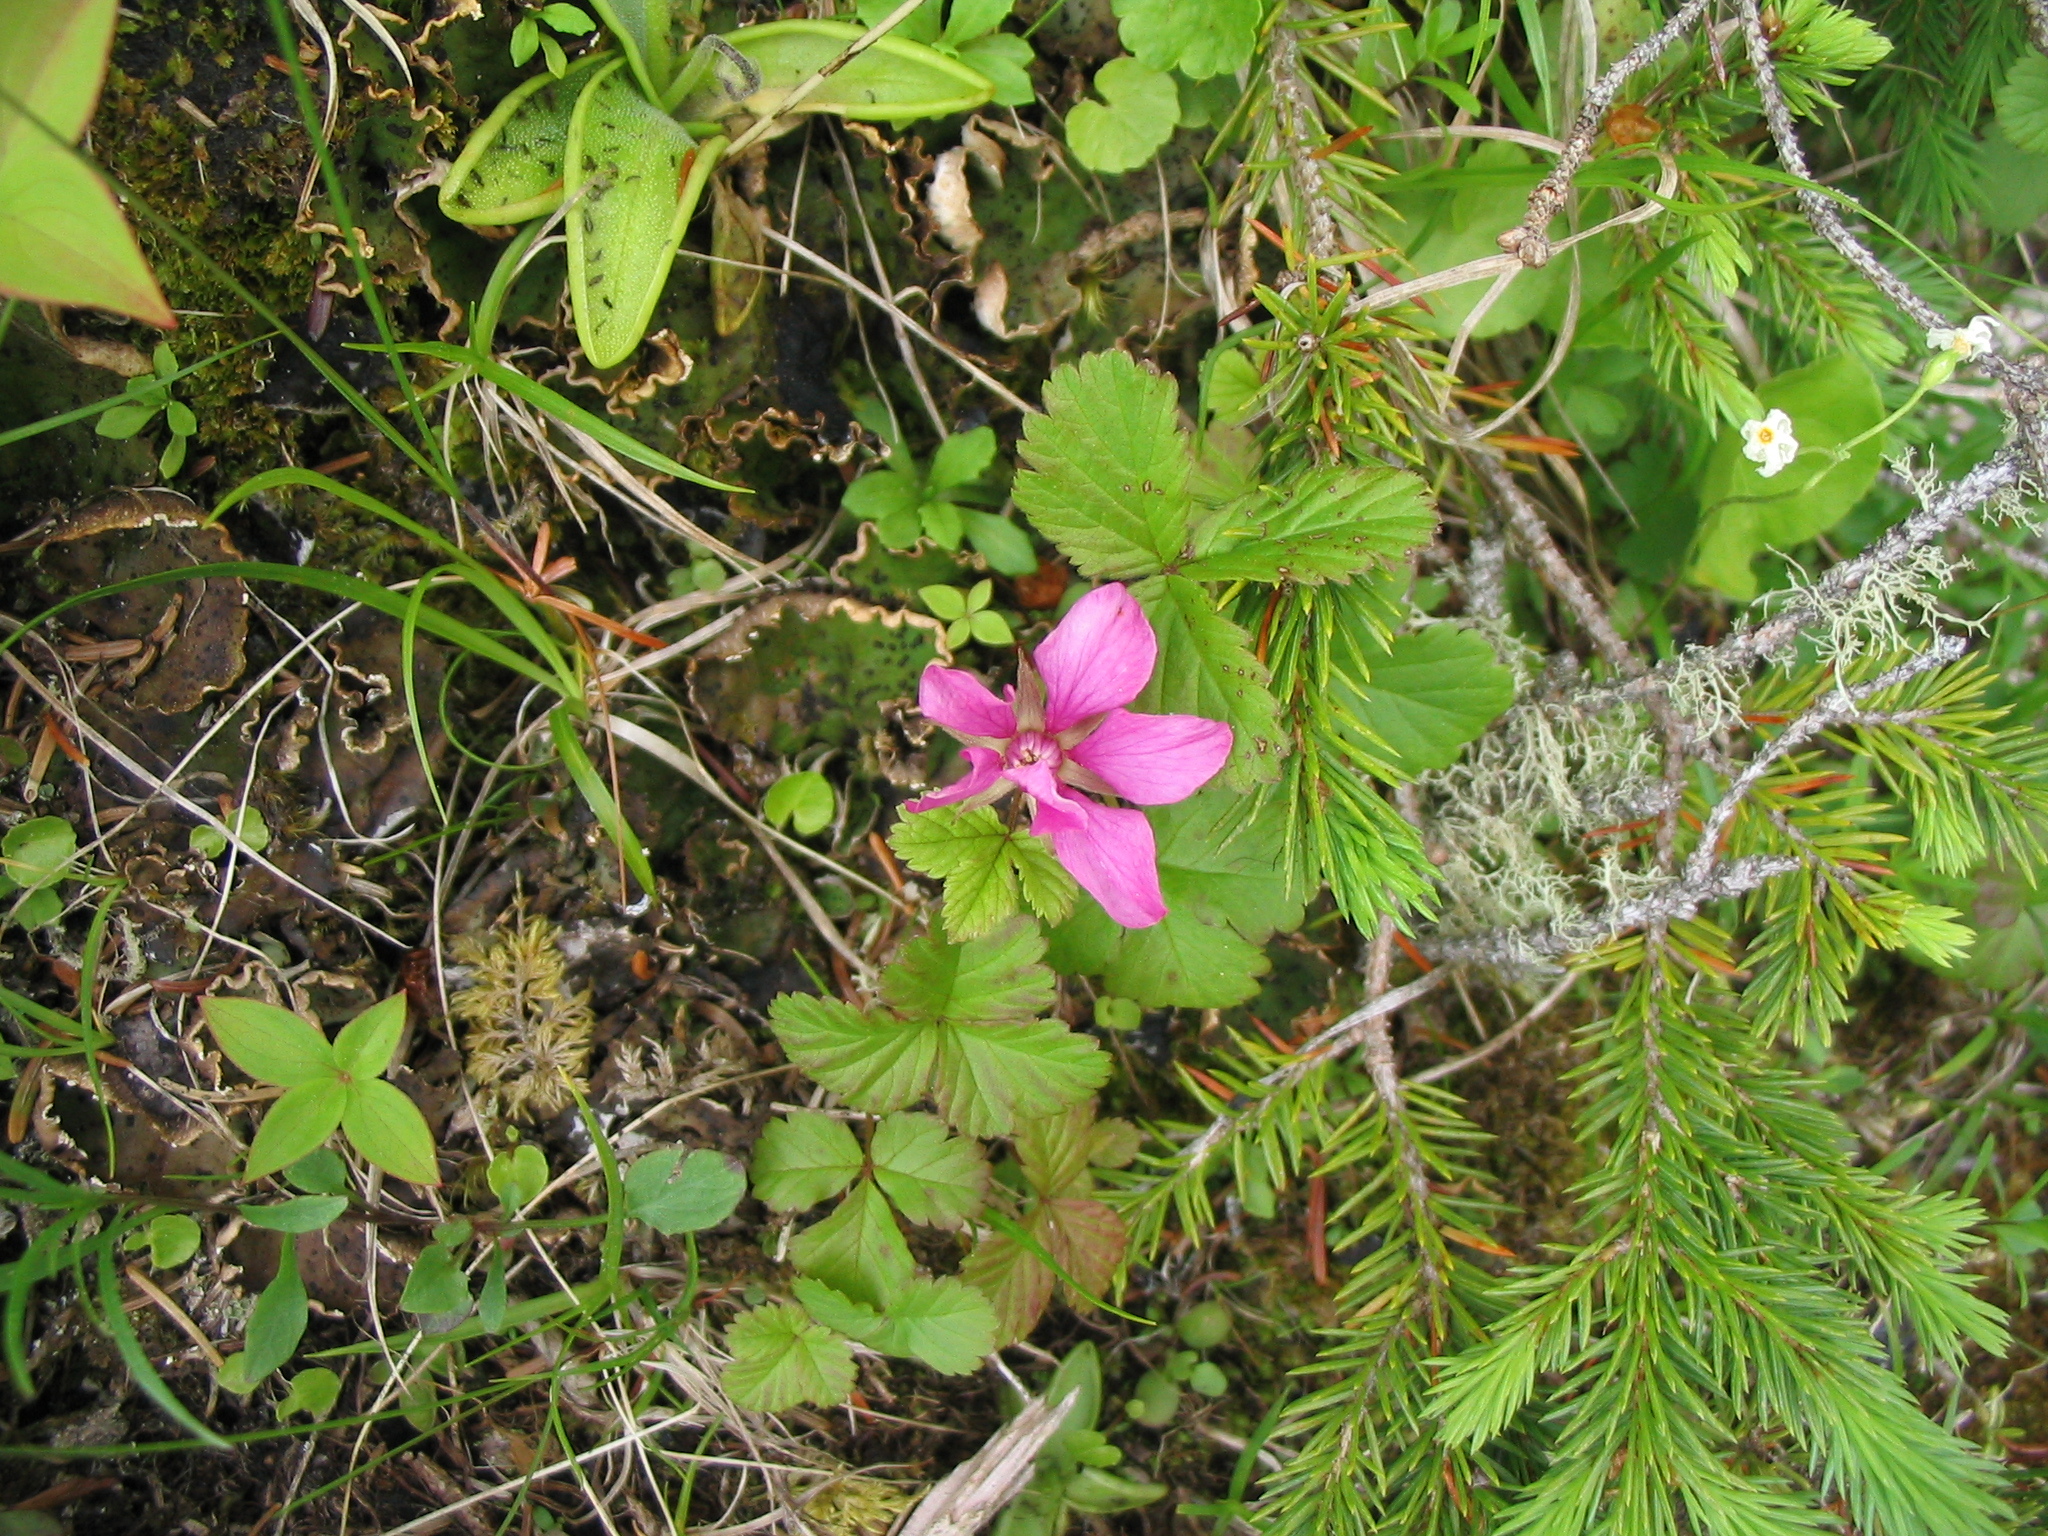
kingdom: Plantae
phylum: Tracheophyta
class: Magnoliopsida
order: Rosales
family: Rosaceae
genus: Rubus
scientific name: Rubus arcticus
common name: Arctic bramble
